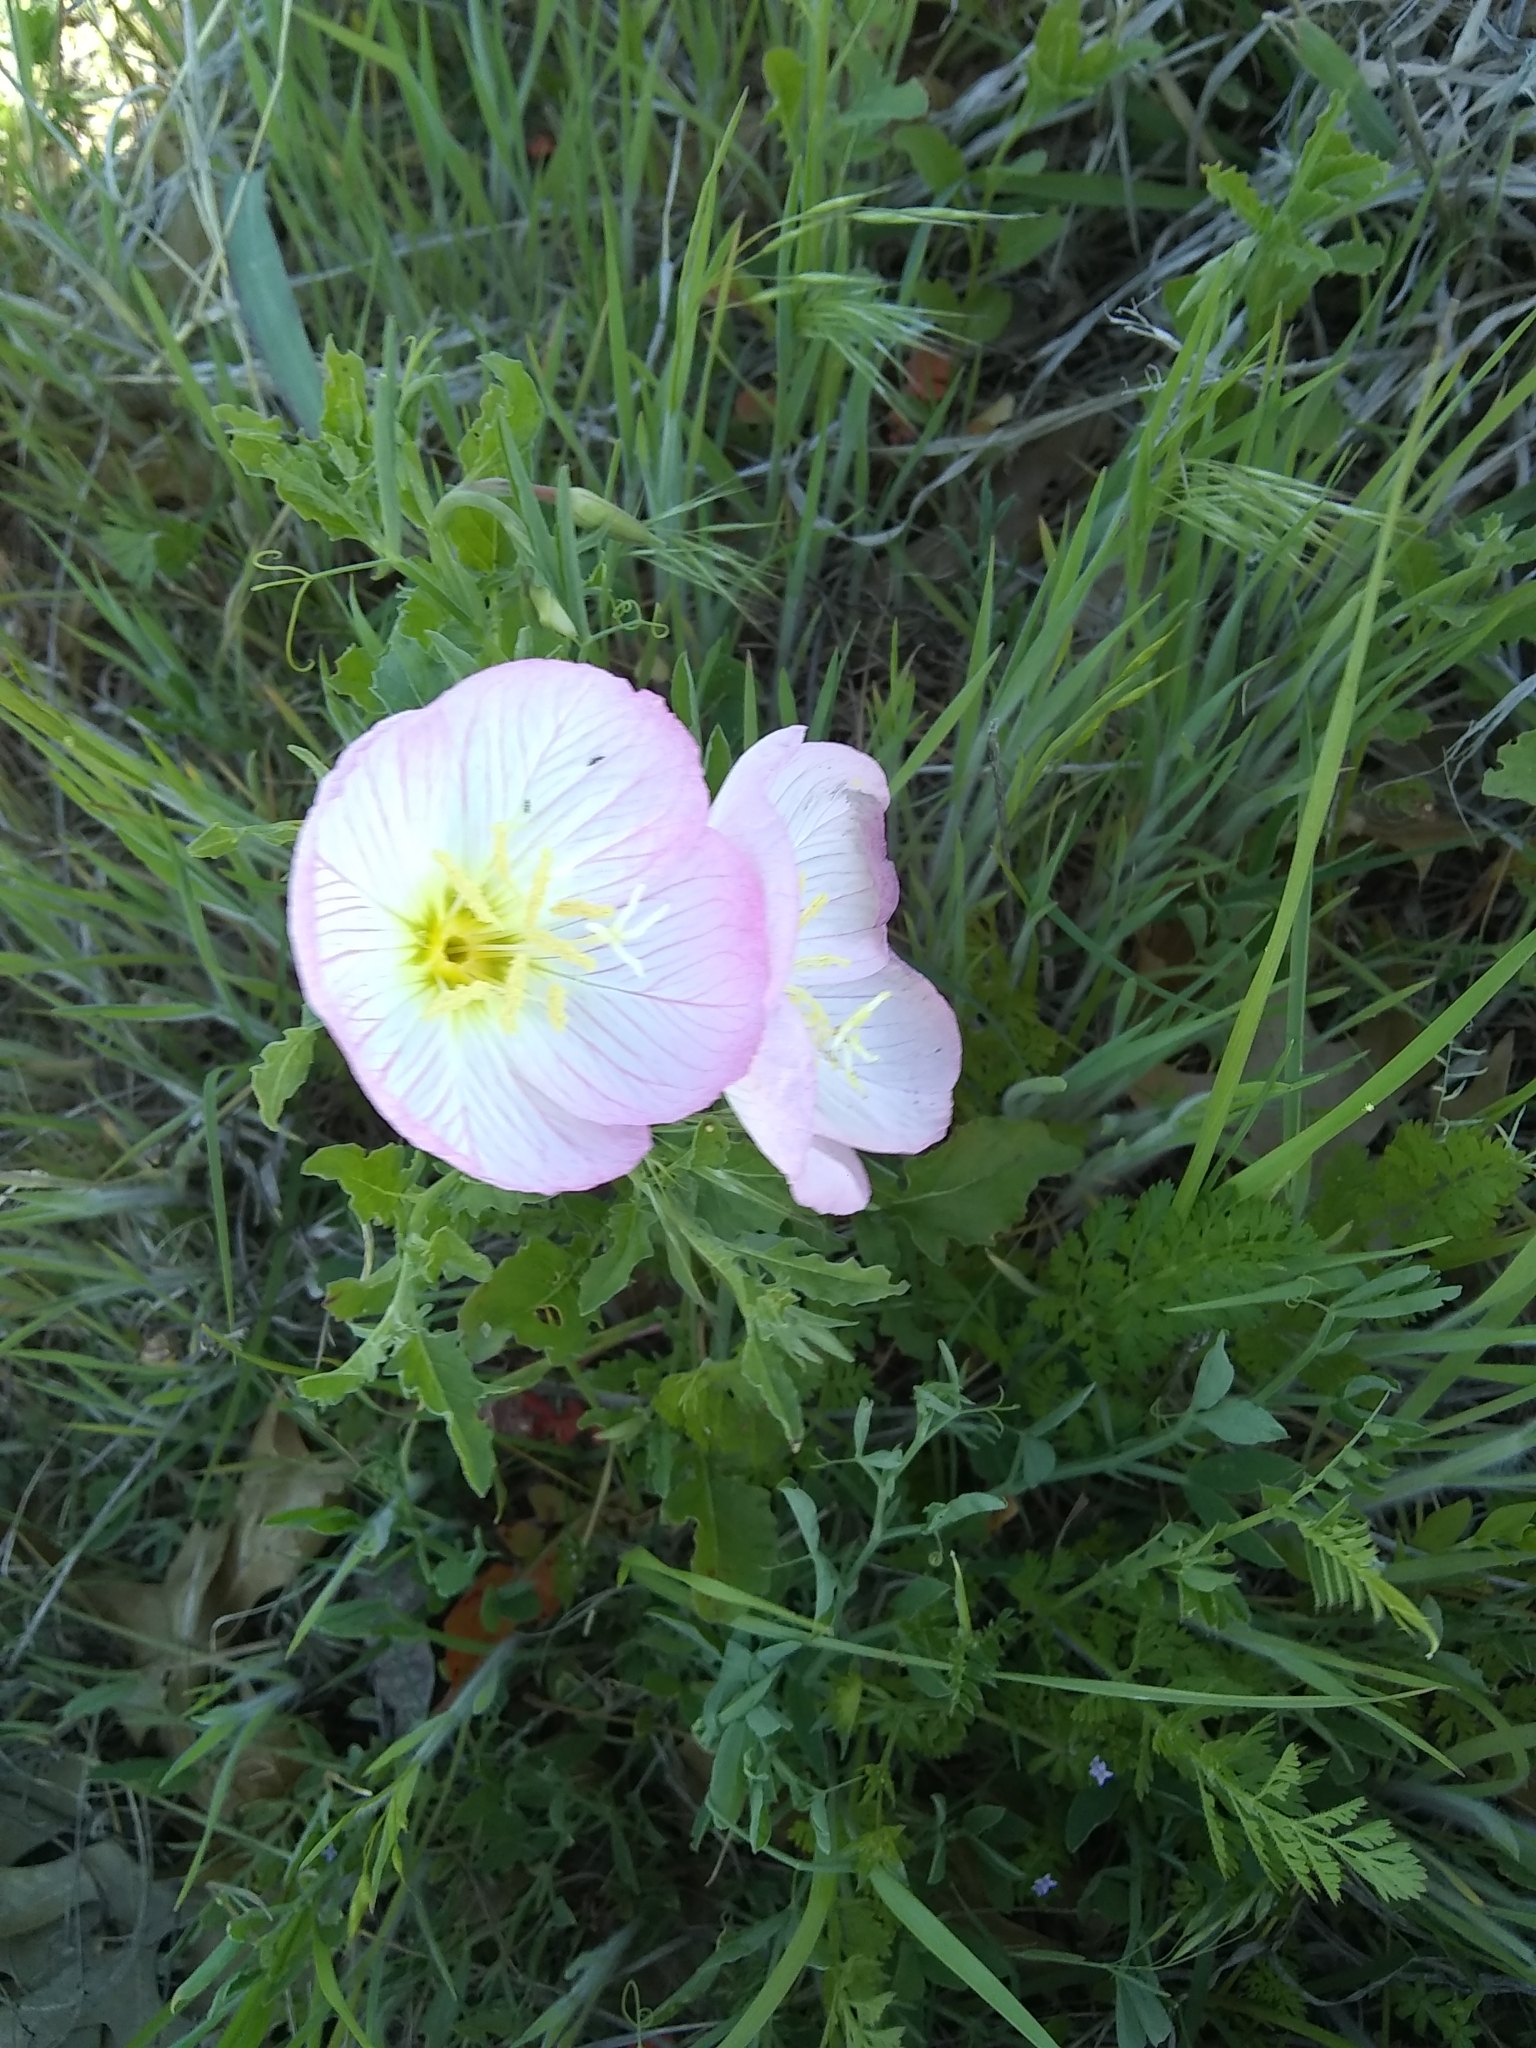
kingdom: Plantae
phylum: Tracheophyta
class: Magnoliopsida
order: Myrtales
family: Onagraceae
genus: Oenothera
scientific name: Oenothera speciosa
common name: White evening-primrose
